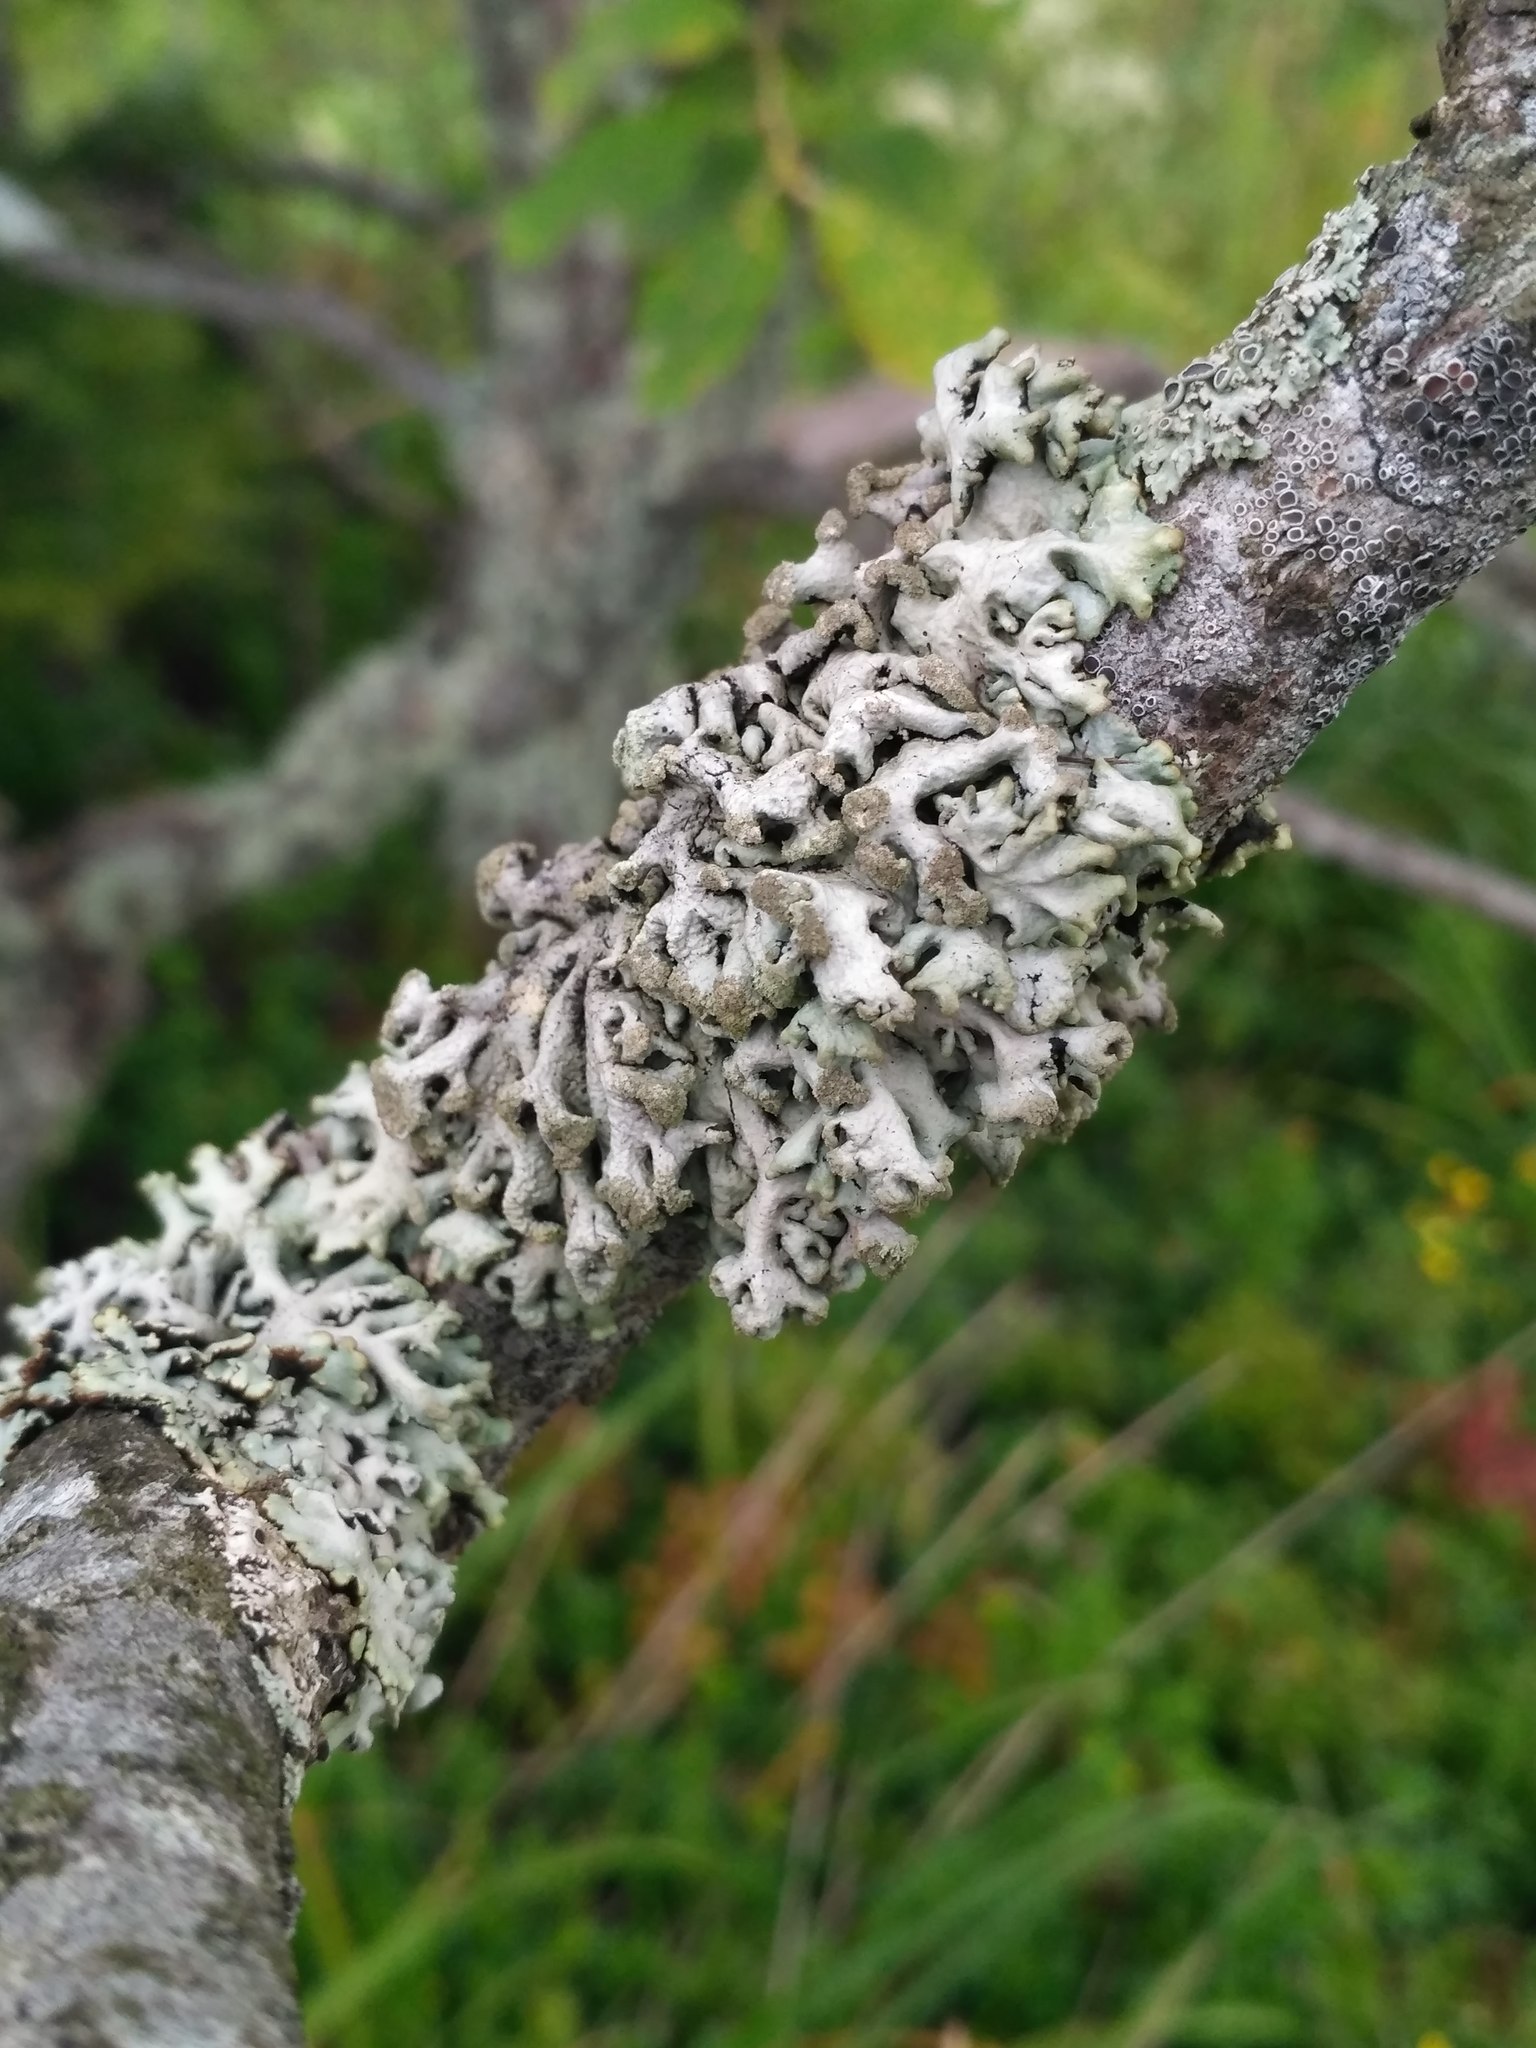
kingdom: Fungi
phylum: Ascomycota
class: Lecanoromycetes
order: Lecanorales
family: Parmeliaceae
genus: Hypogymnia
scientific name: Hypogymnia tubulosa
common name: Powder-headed tube lichen
